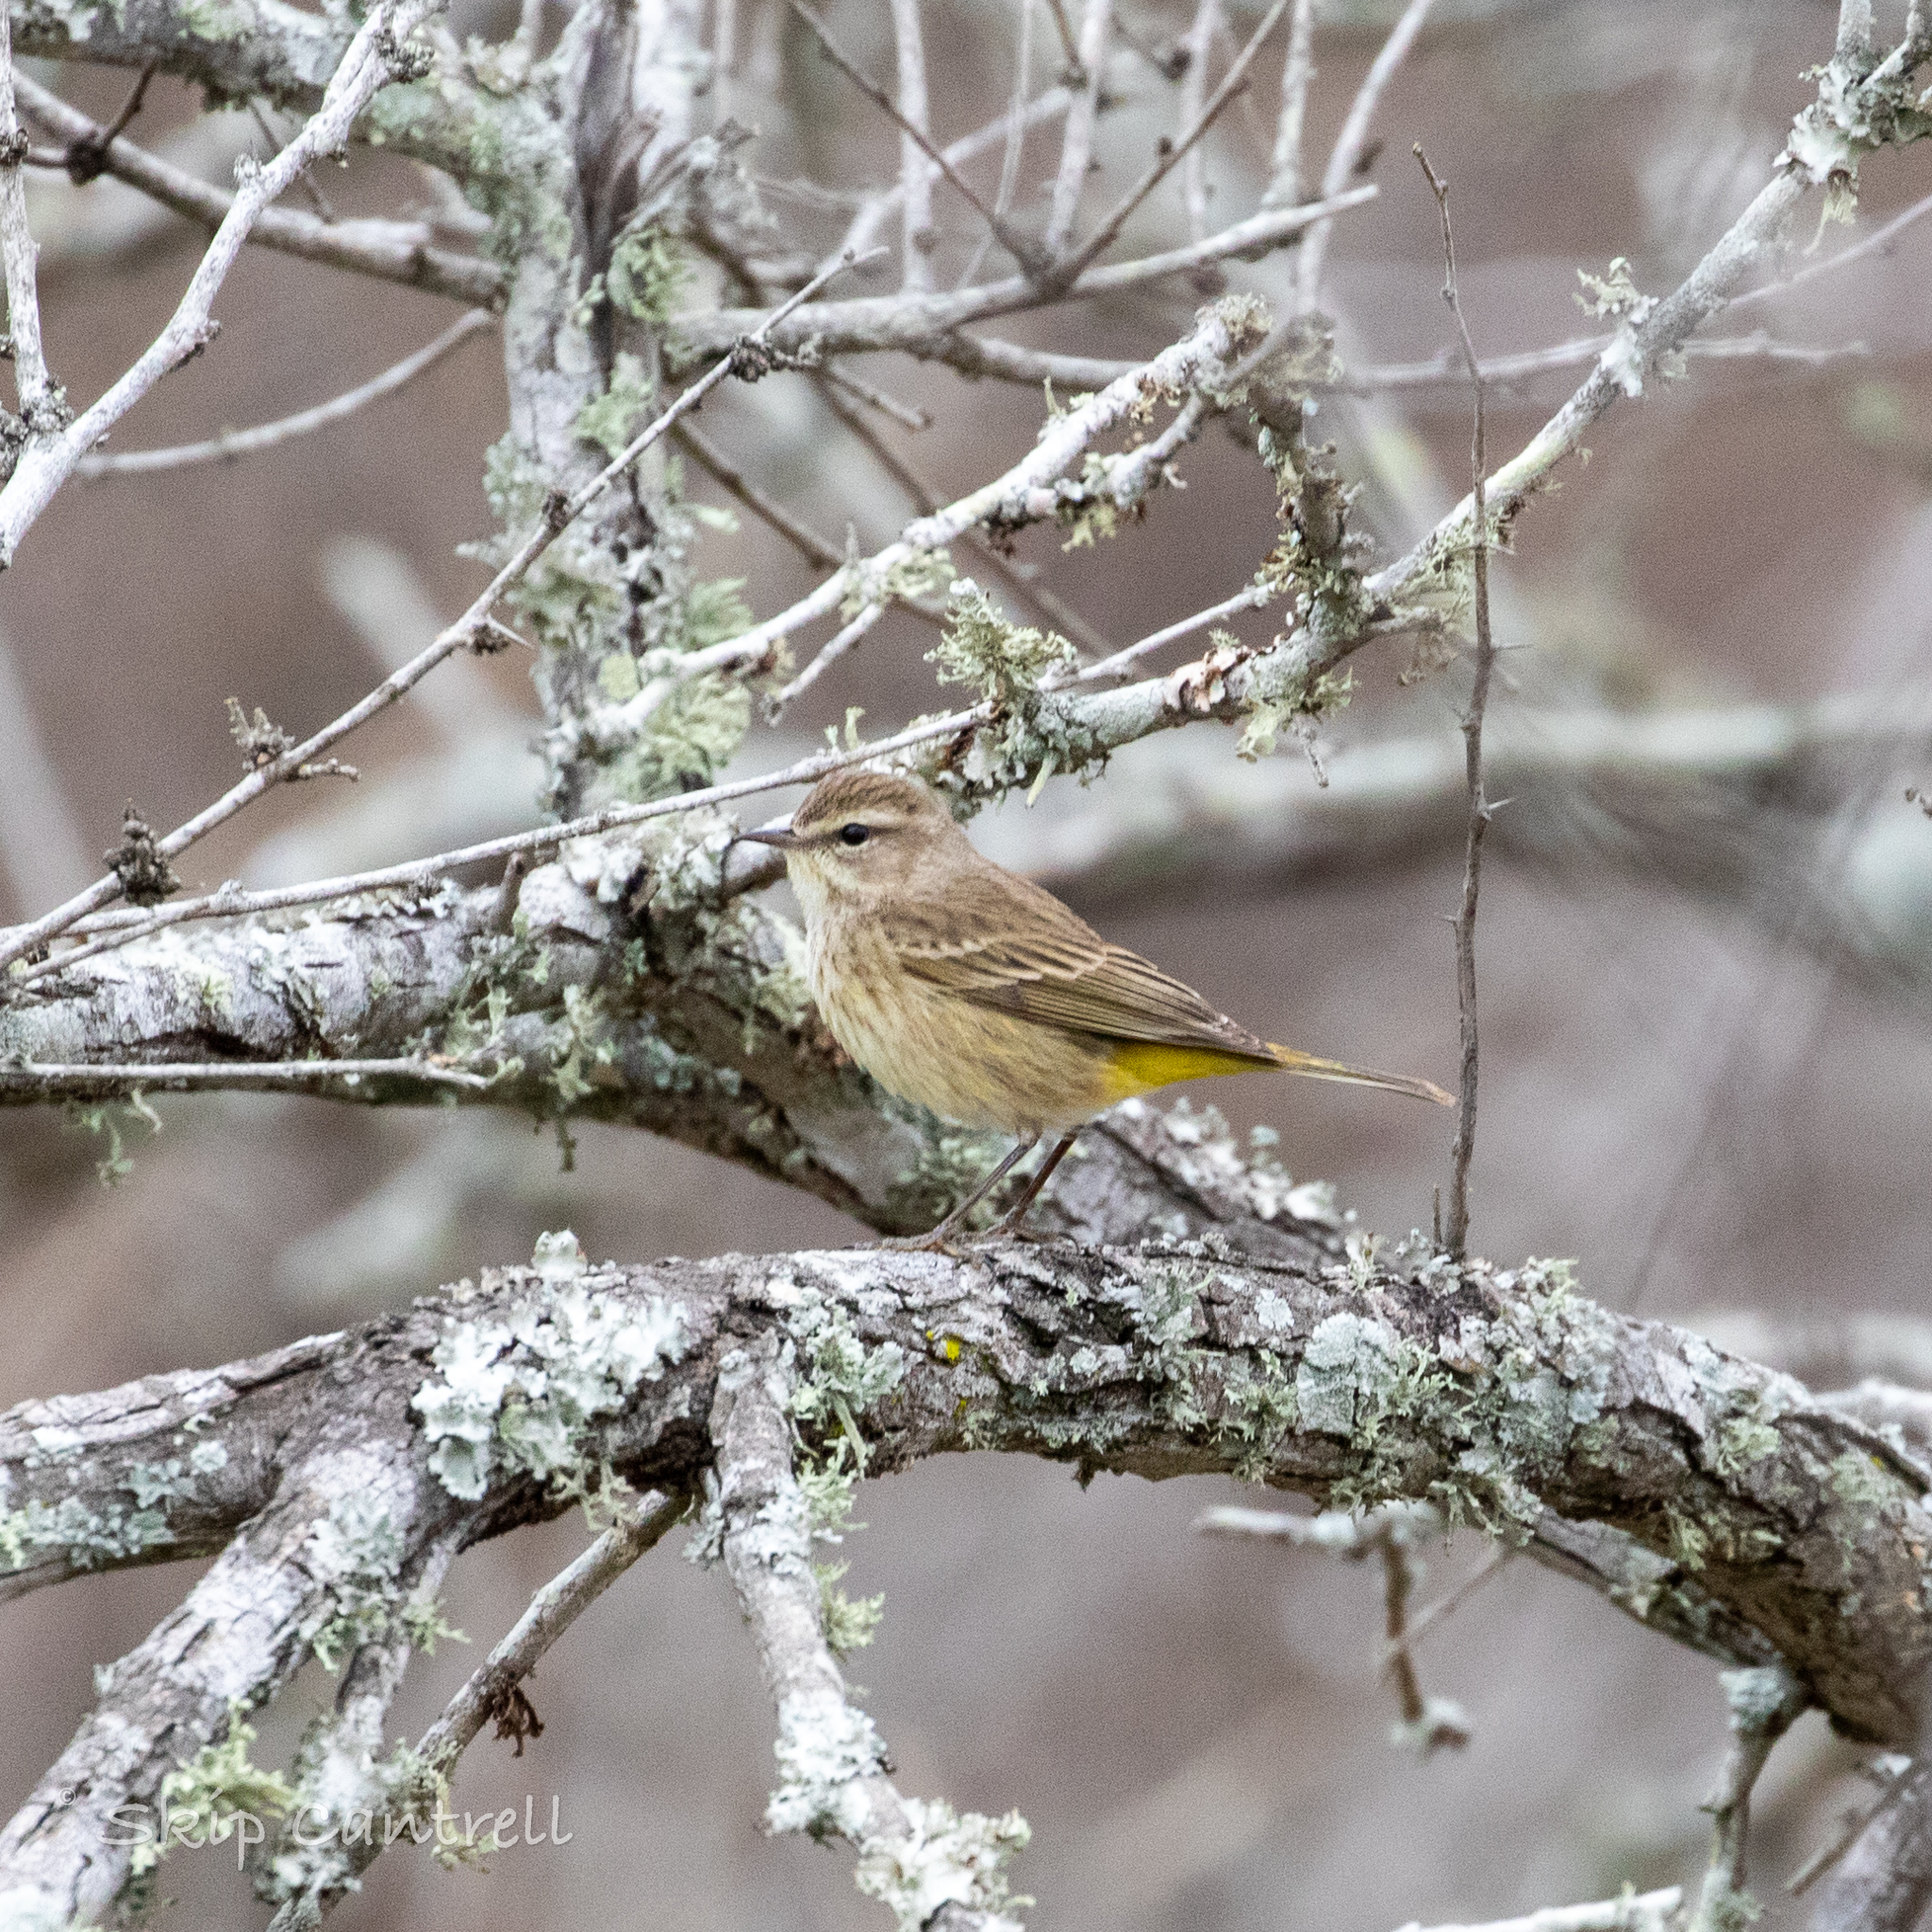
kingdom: Animalia
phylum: Chordata
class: Aves
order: Passeriformes
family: Parulidae
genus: Setophaga
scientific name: Setophaga palmarum
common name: Palm warbler
